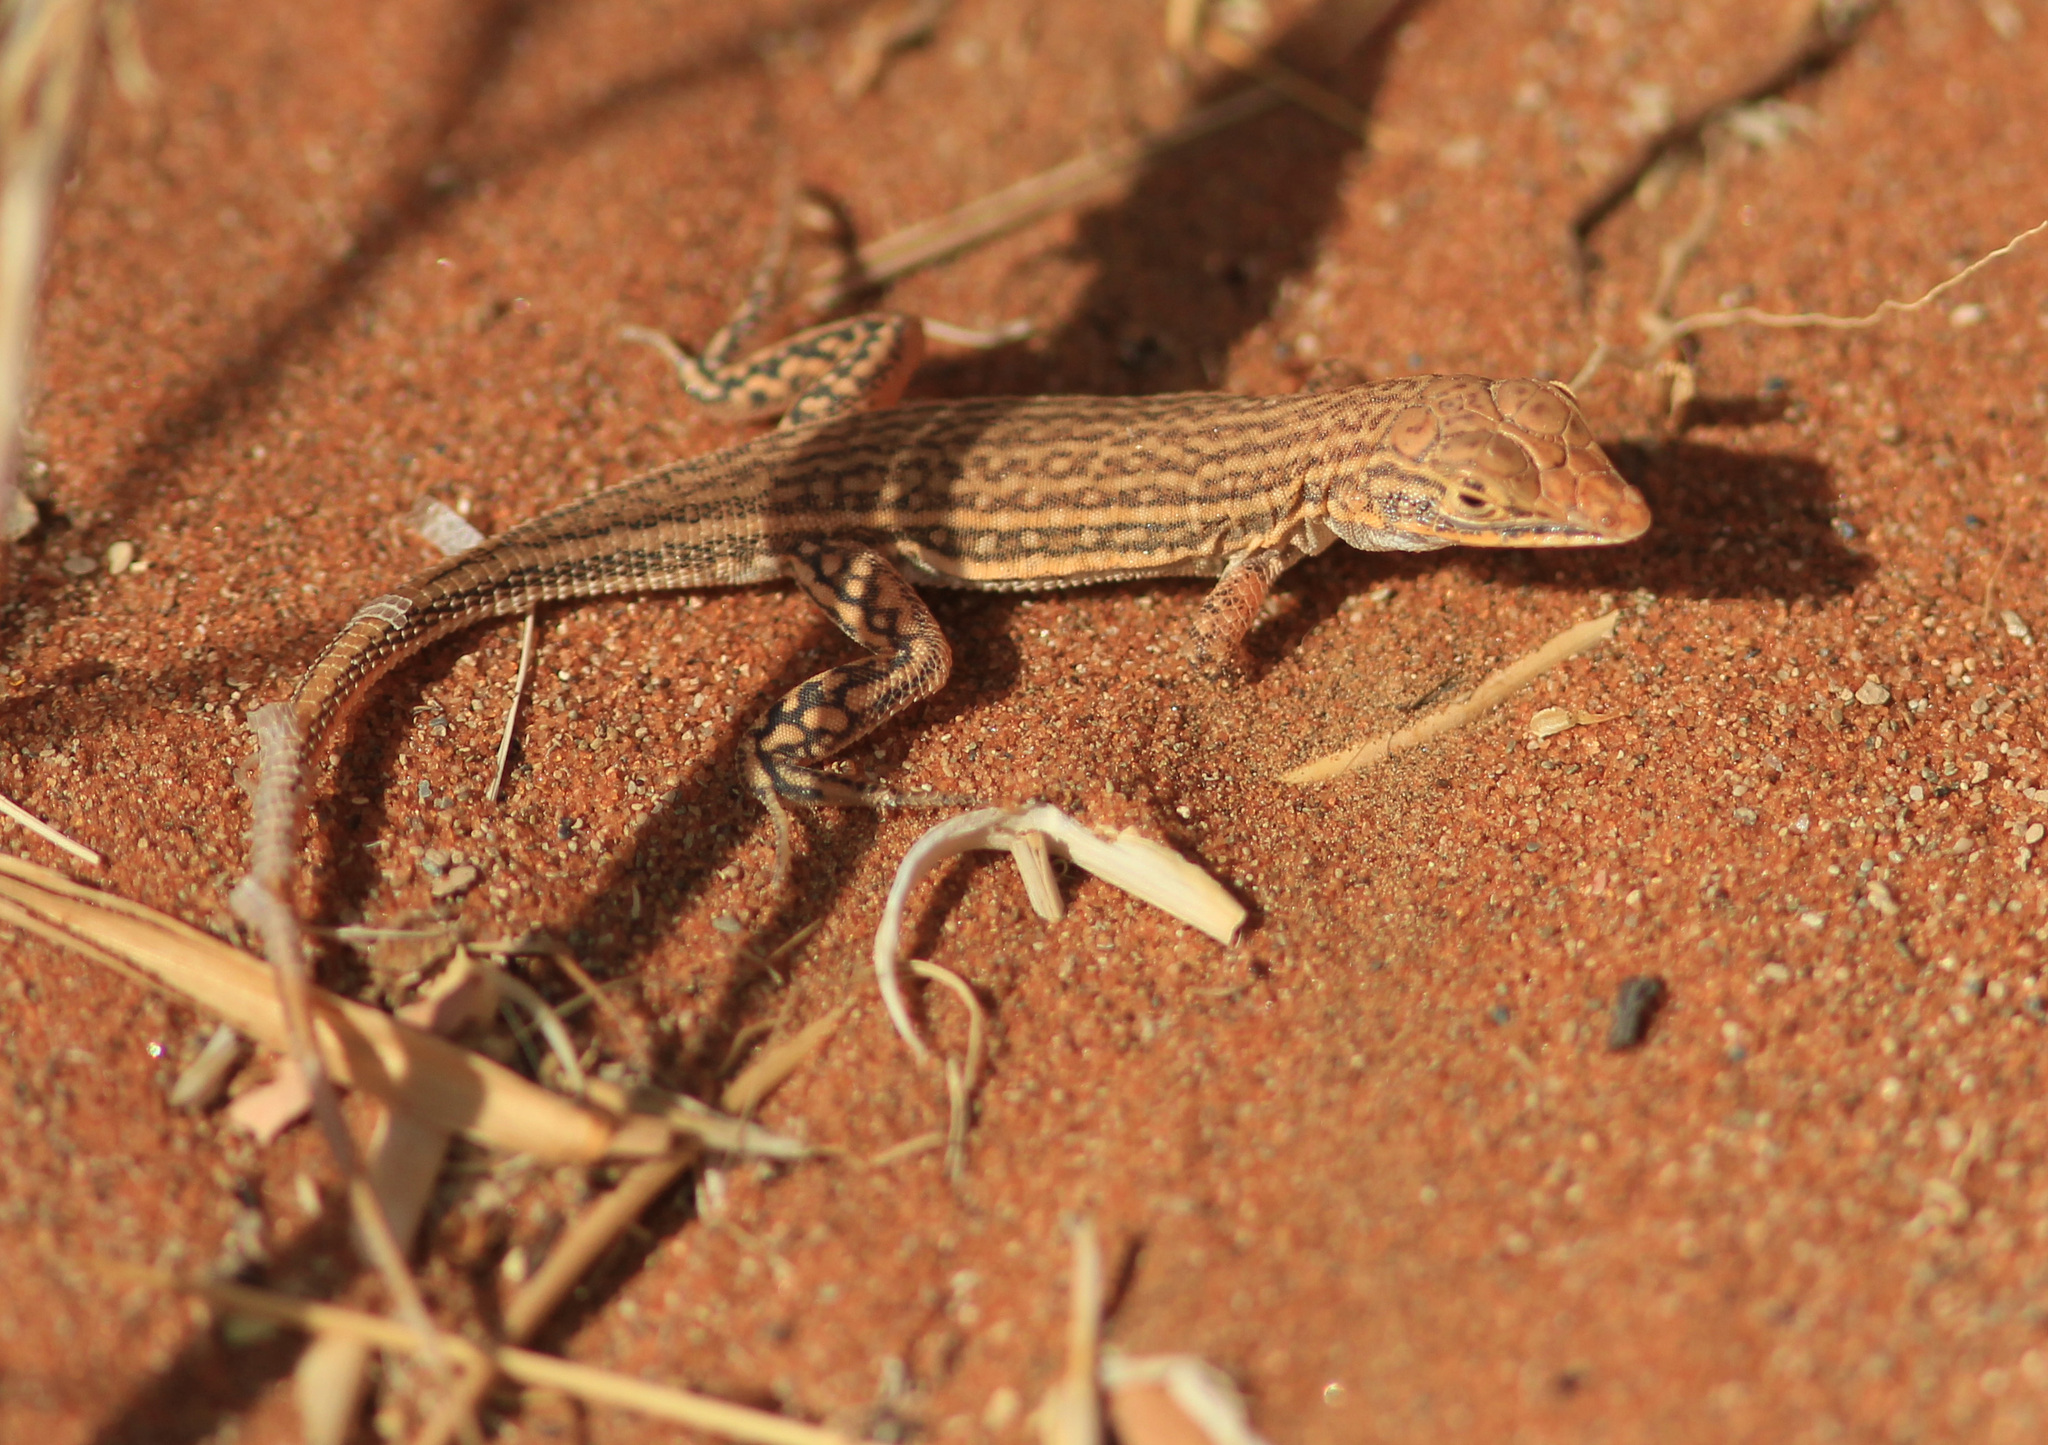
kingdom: Animalia
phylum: Chordata
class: Squamata
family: Lacertidae
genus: Meroles
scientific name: Meroles cuneirostris
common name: Wedge-snouted desert lizard
